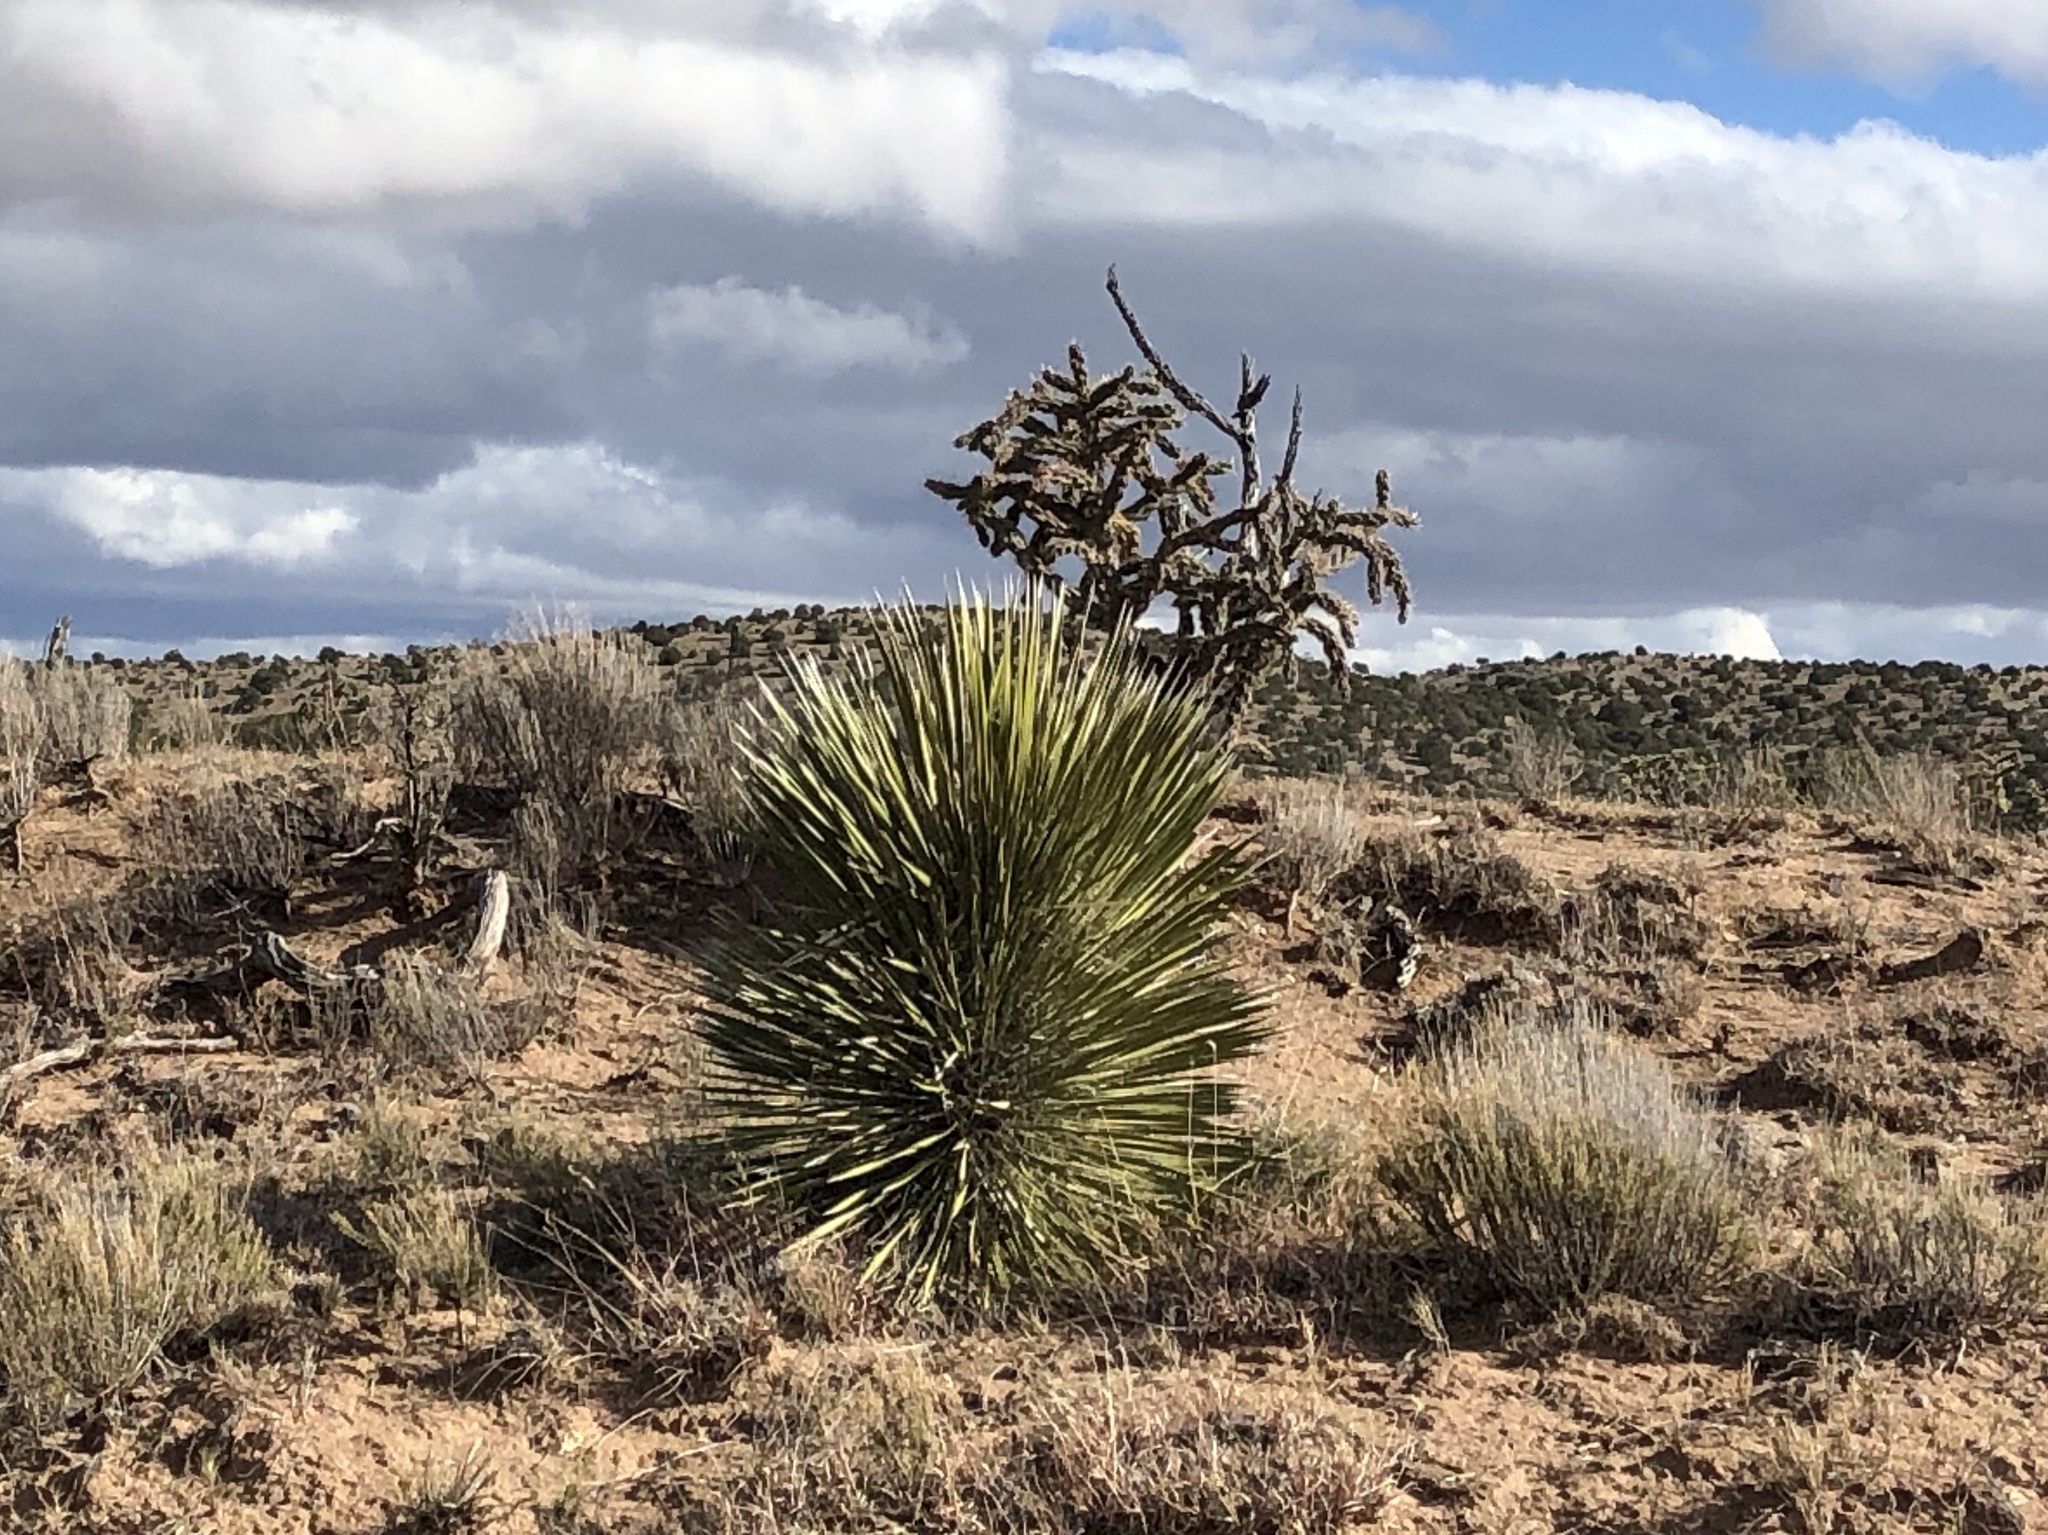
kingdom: Plantae
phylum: Tracheophyta
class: Liliopsida
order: Asparagales
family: Asparagaceae
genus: Yucca
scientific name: Yucca elata
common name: Palmella
